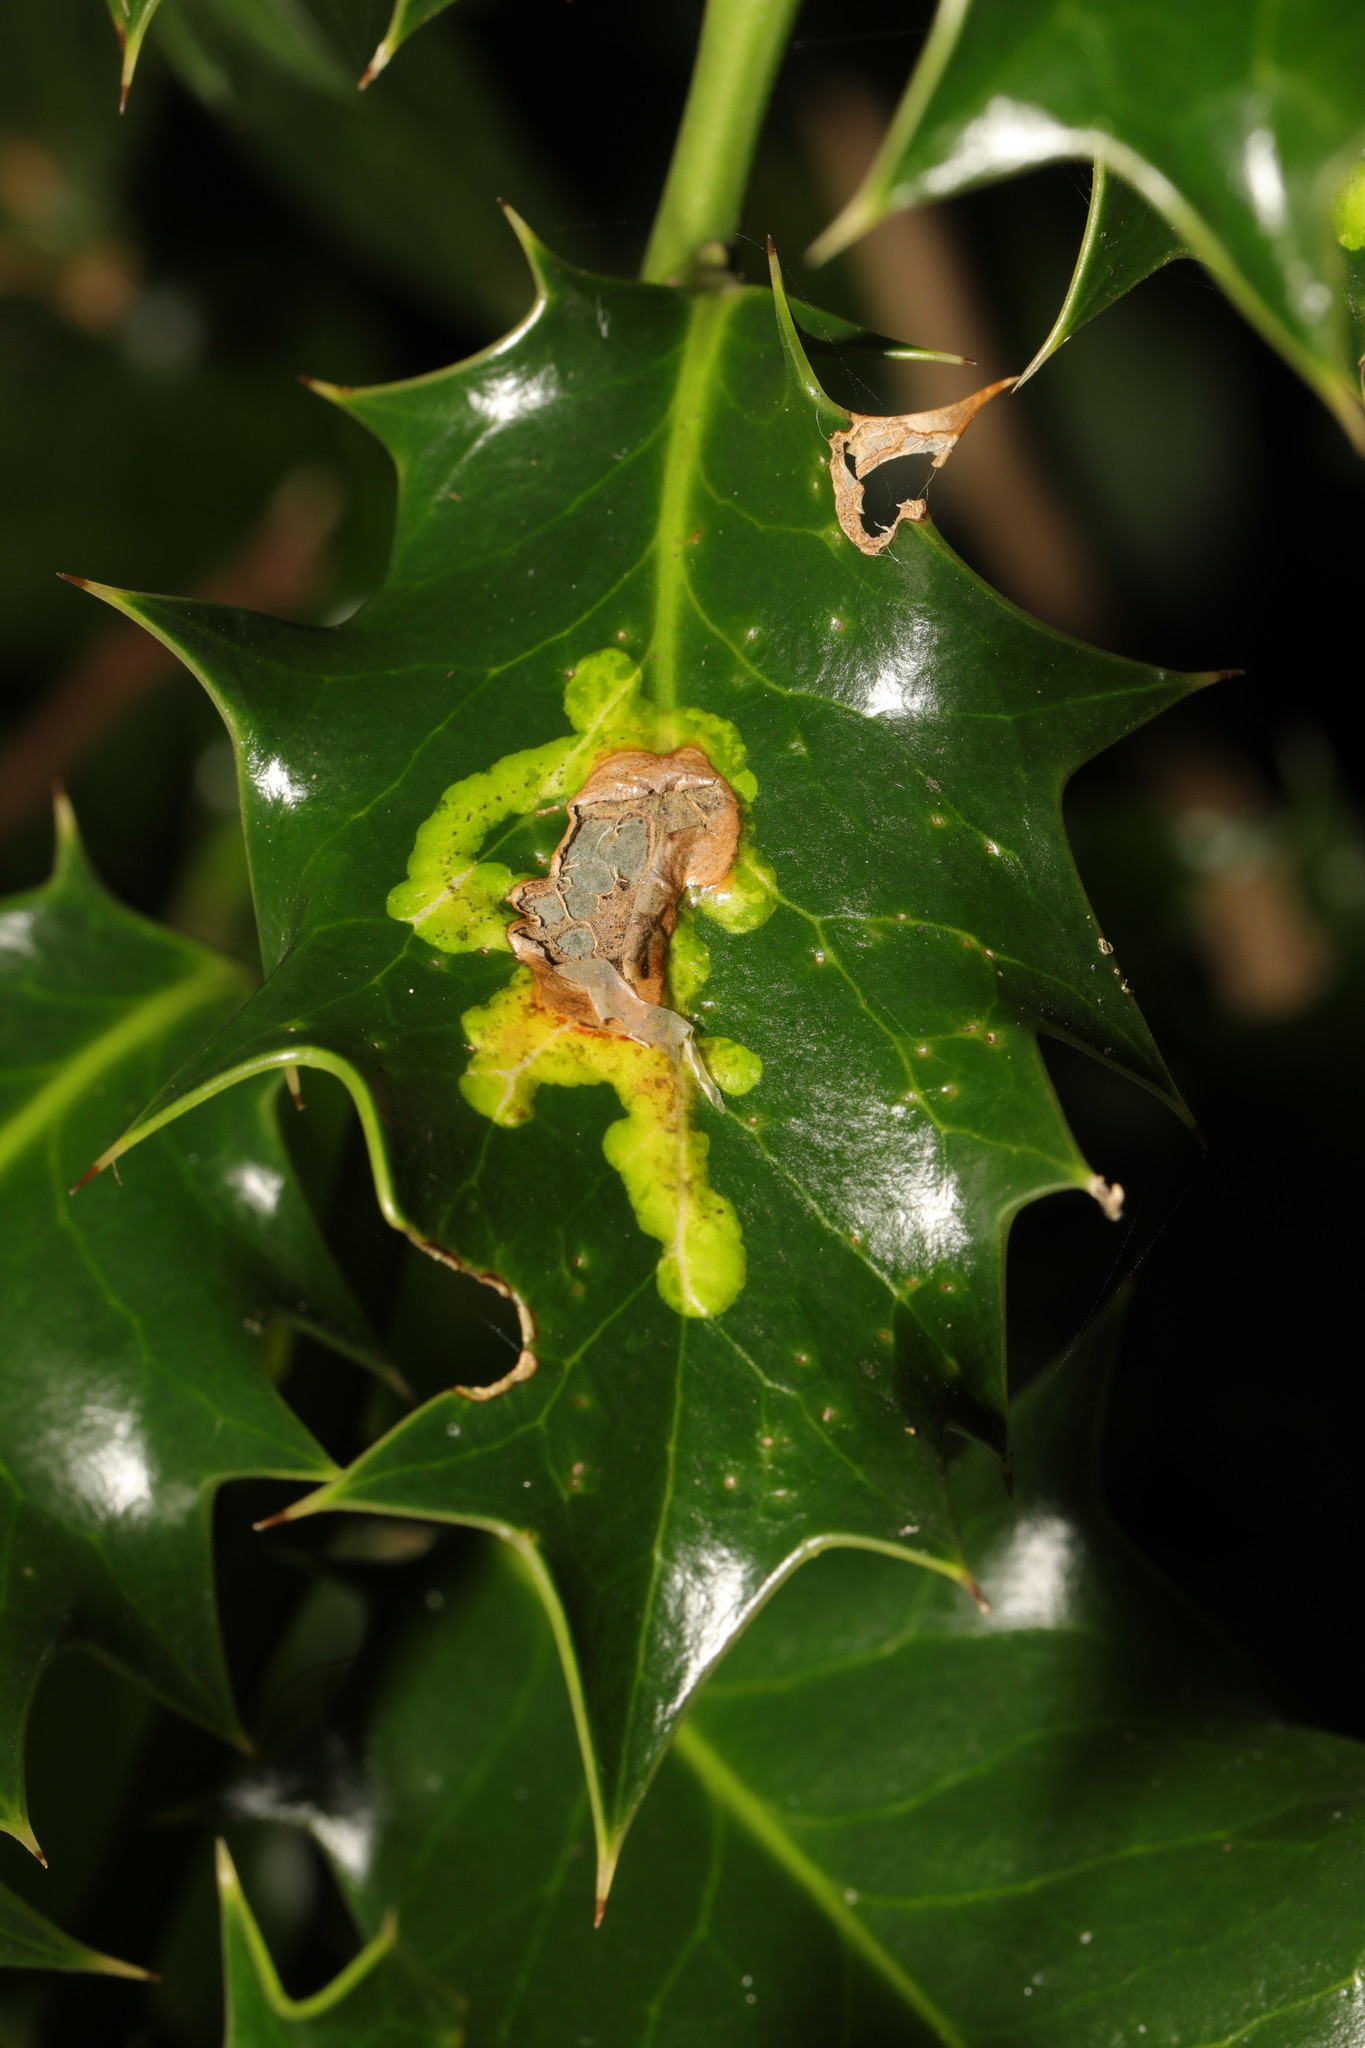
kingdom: Animalia
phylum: Arthropoda
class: Insecta
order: Diptera
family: Agromyzidae
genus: Phytomyza
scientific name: Phytomyza ilicis
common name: Holly leafminer
